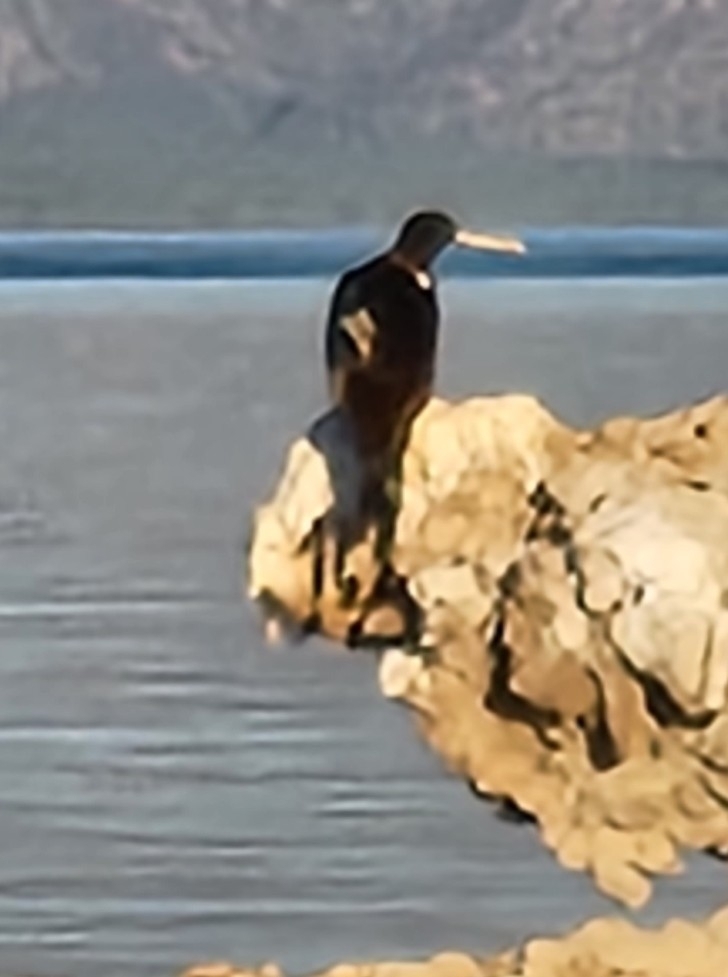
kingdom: Animalia
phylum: Chordata
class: Aves
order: Suliformes
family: Fregatidae
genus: Fregata
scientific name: Fregata magnificens
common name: Magnificent frigatebird
